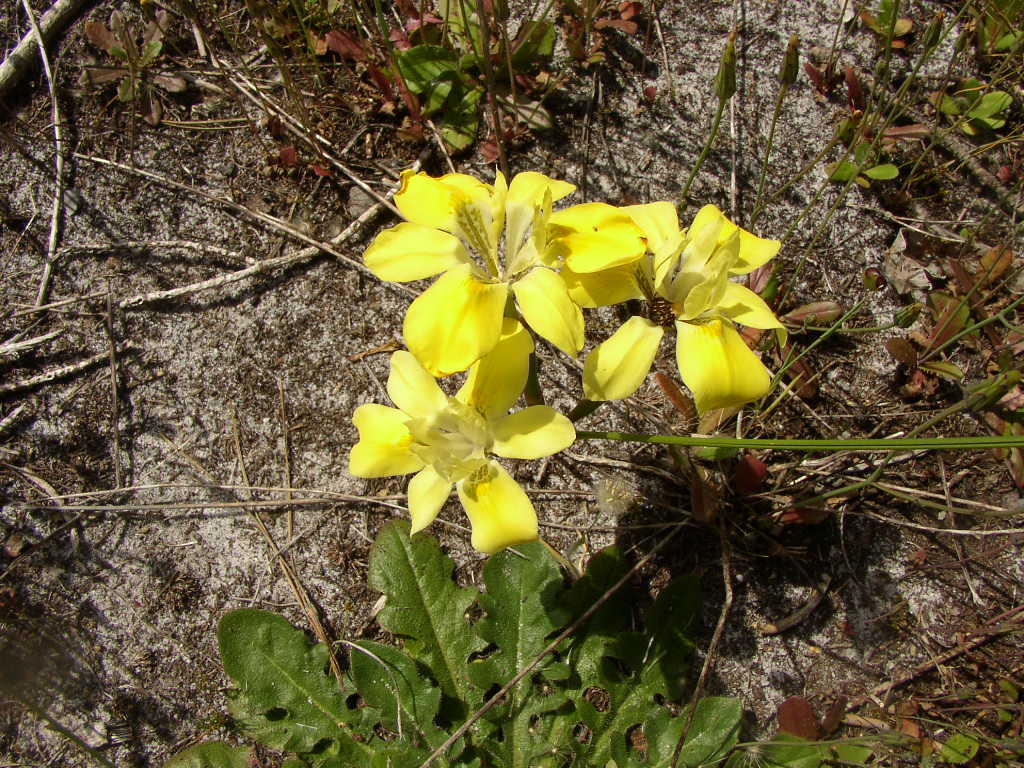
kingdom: Plantae
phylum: Tracheophyta
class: Liliopsida
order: Asparagales
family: Iridaceae
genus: Moraea
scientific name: Moraea fugax
